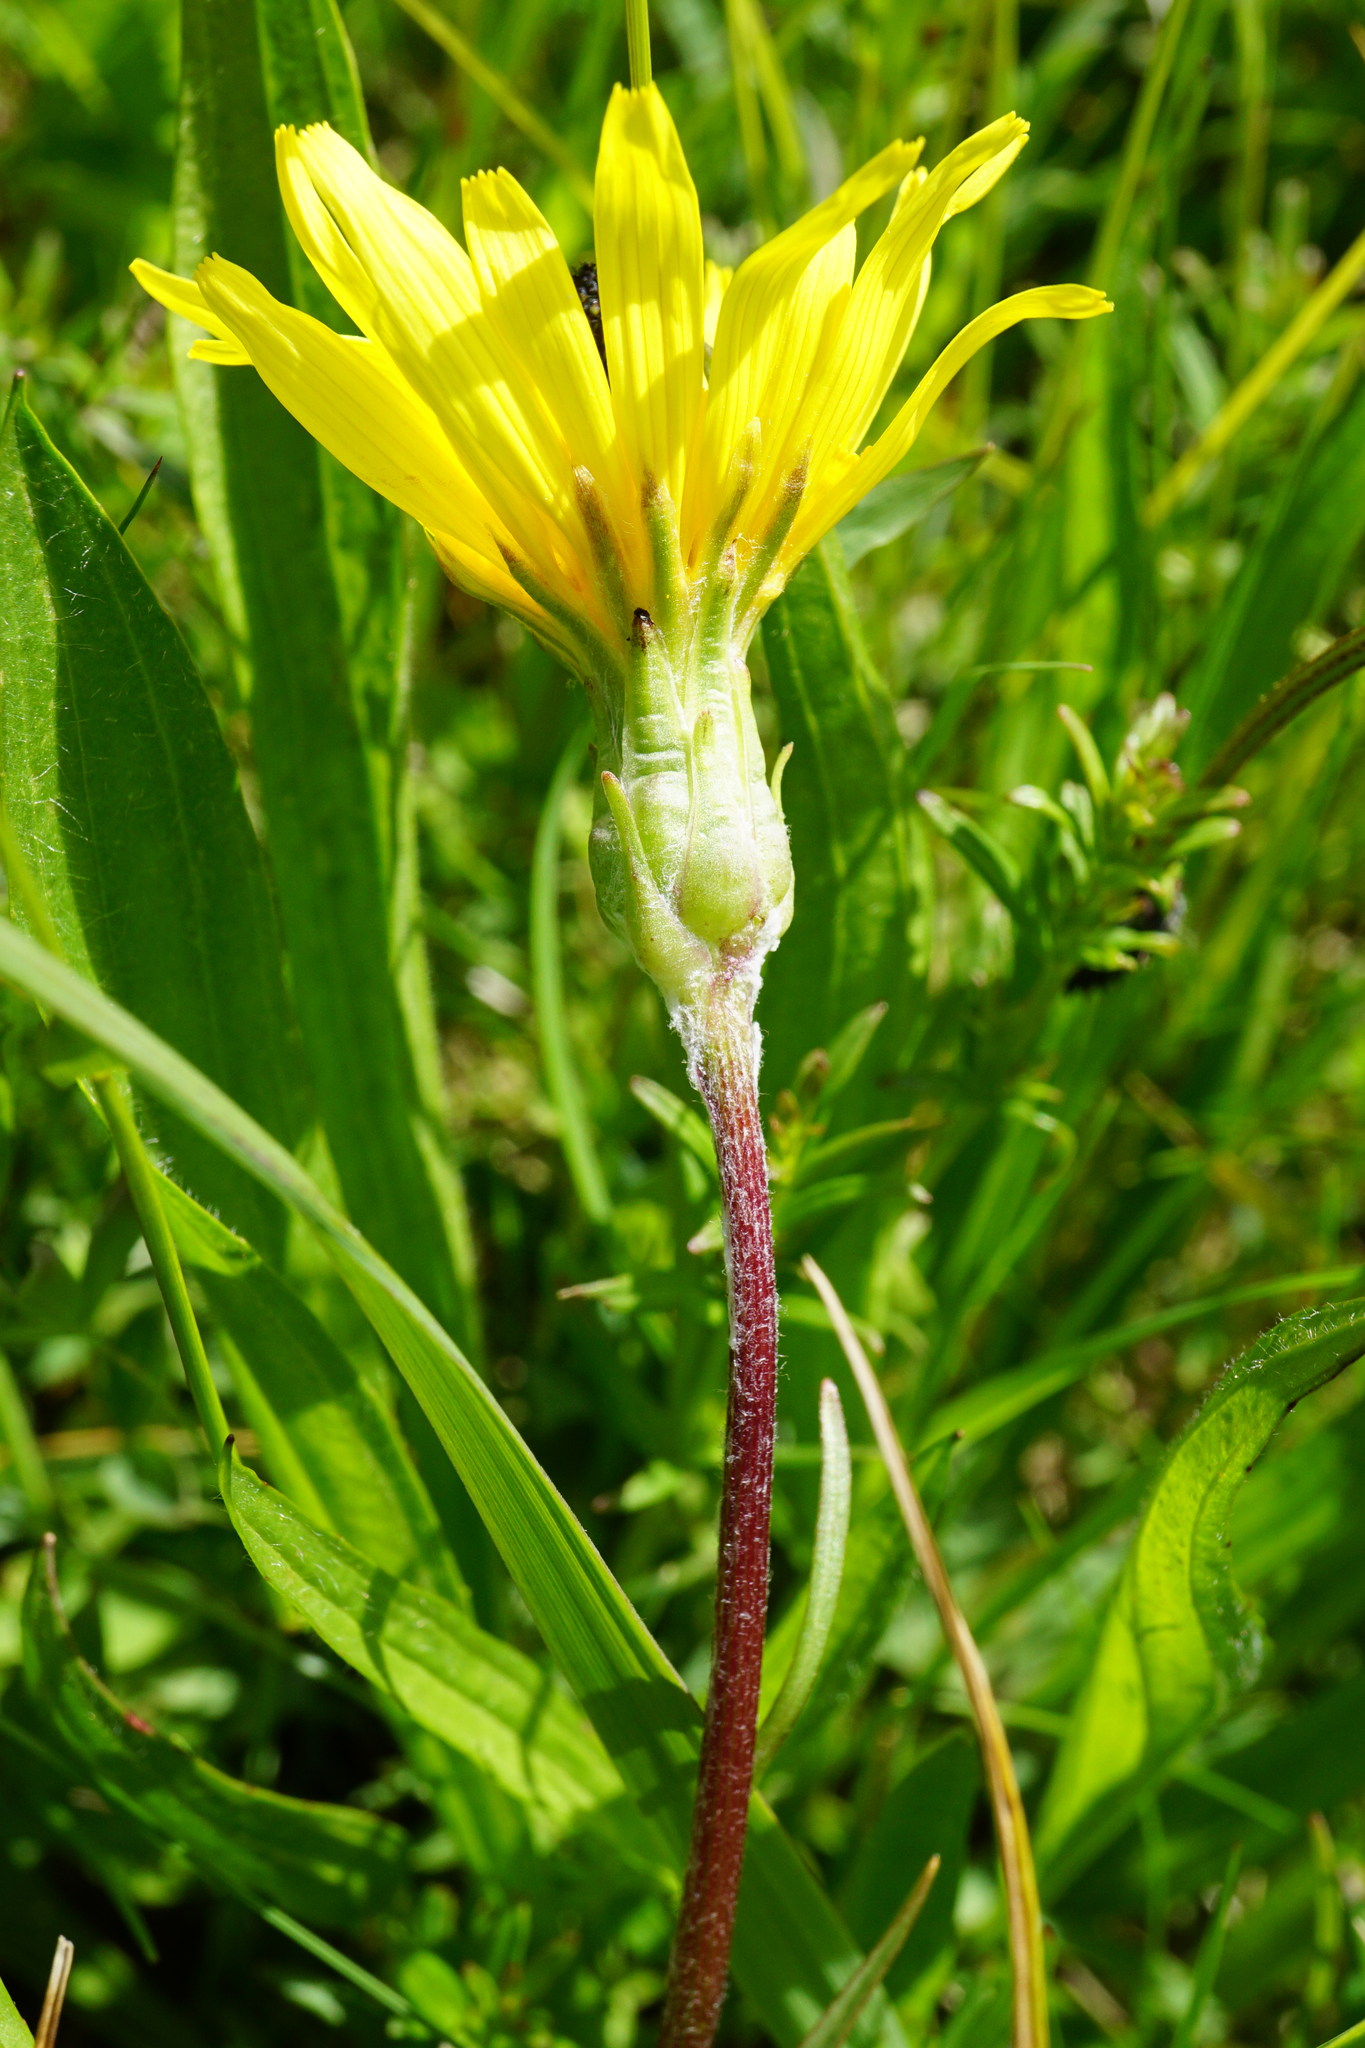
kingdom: Plantae
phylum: Tracheophyta
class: Magnoliopsida
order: Asterales
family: Asteraceae
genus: Scorzonera
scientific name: Scorzonera humilis
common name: Viper's-grass
